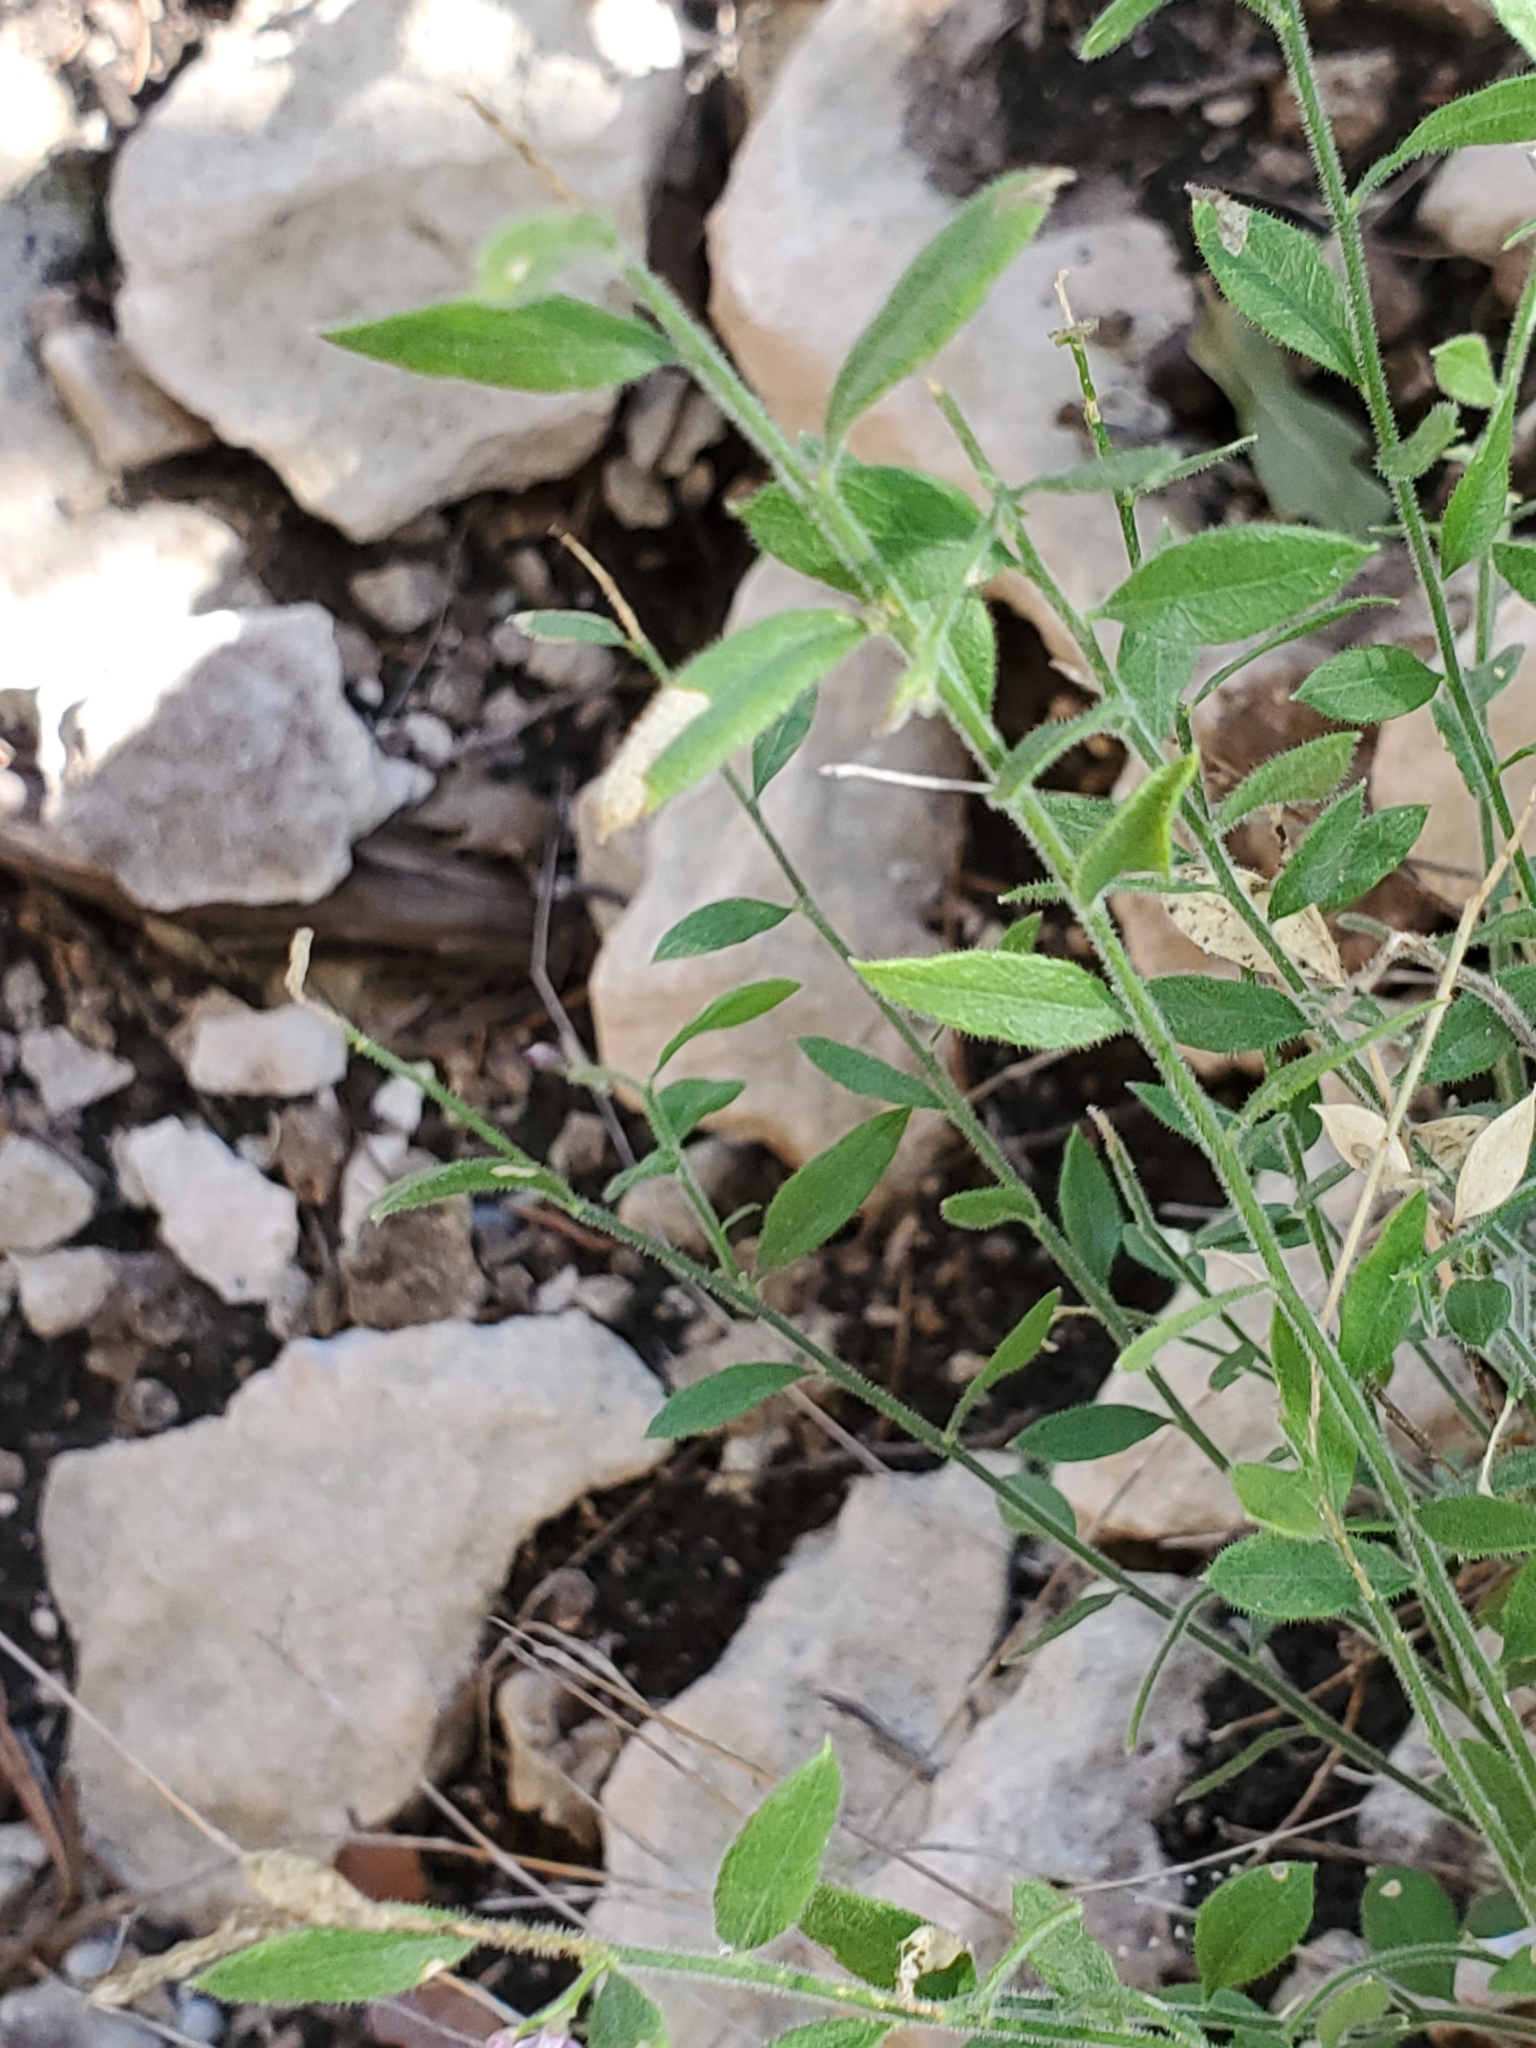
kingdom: Plantae
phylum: Tracheophyta
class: Magnoliopsida
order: Fabales
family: Polygalaceae
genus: Rhinotropis
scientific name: Rhinotropis lindheimeri
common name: Shrubby milkwort
